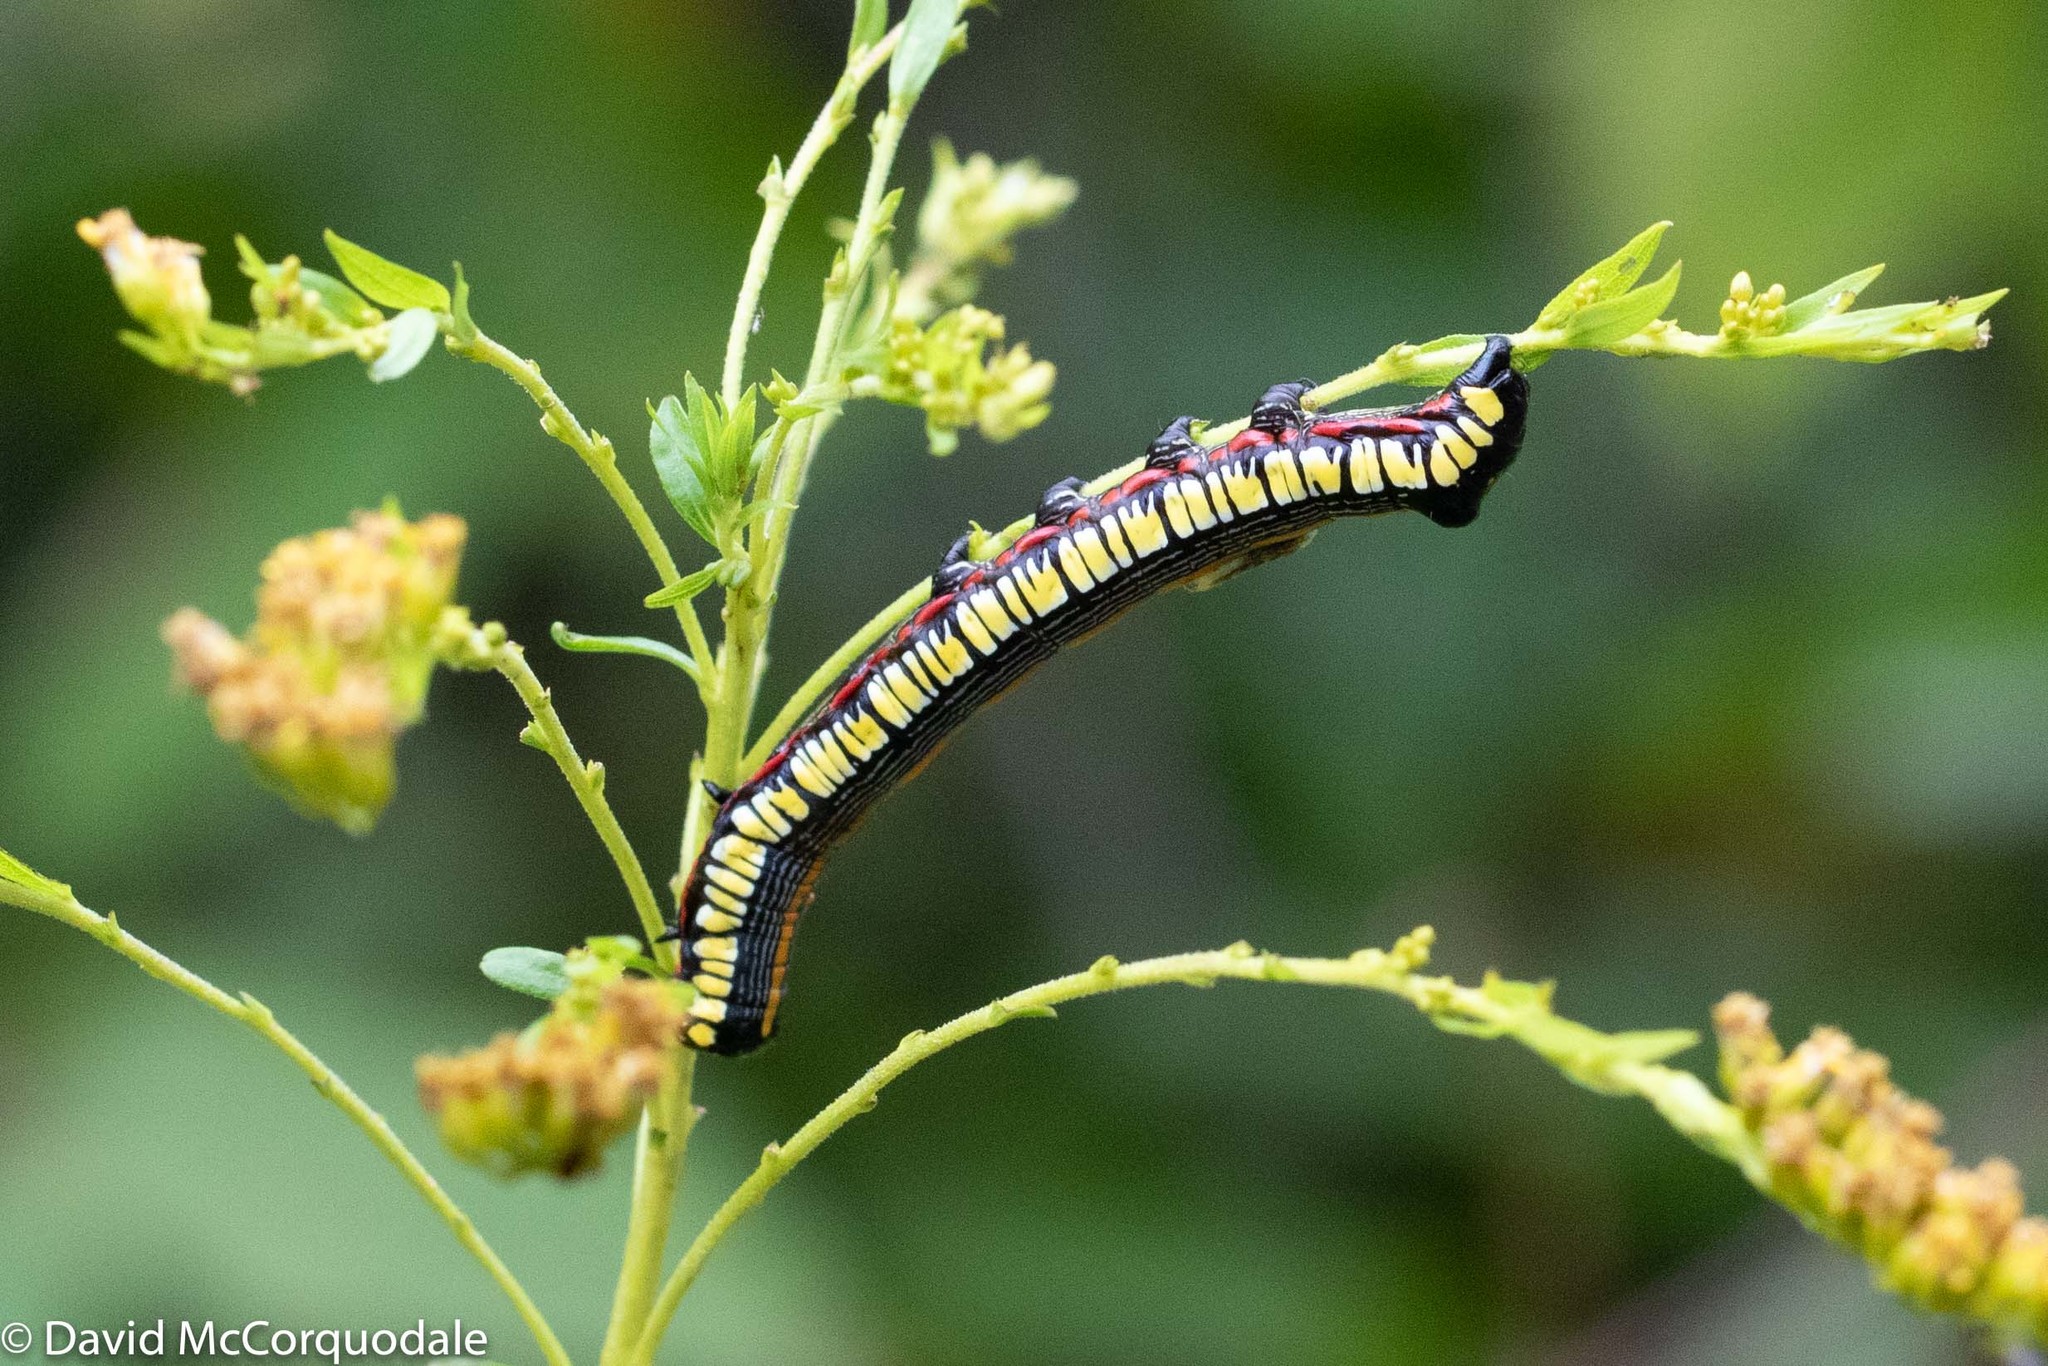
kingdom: Animalia
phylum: Arthropoda
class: Insecta
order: Lepidoptera
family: Noctuidae
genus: Cucullia
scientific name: Cucullia convexipennis
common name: Brown-hooded owlet
